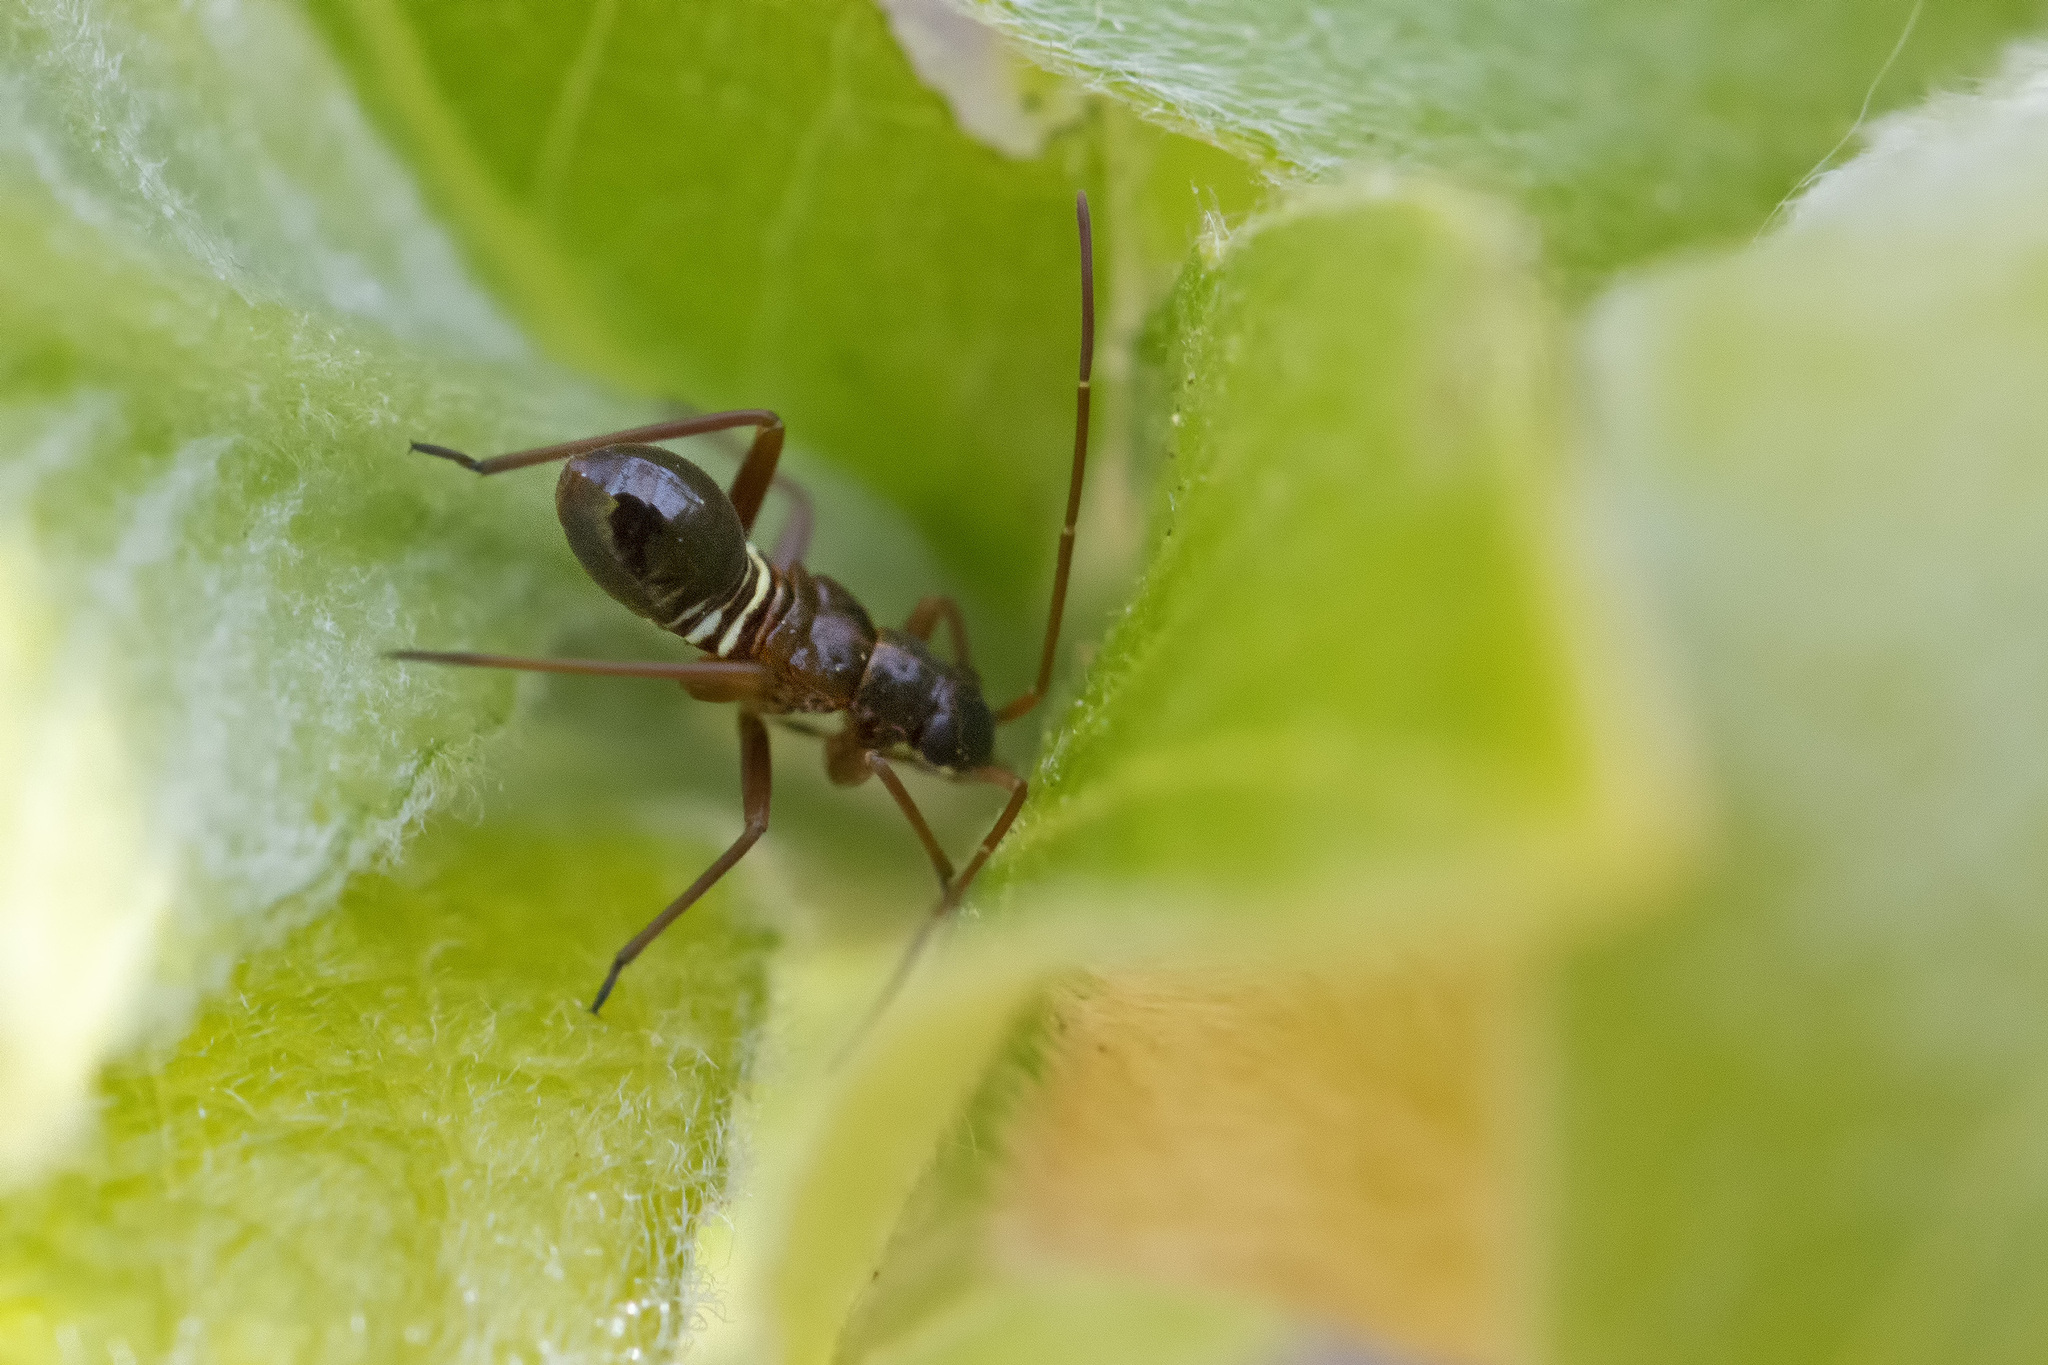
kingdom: Animalia
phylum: Arthropoda
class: Insecta
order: Hemiptera
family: Miridae
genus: Miris
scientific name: Miris striatus
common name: Fine streaked bugkin
